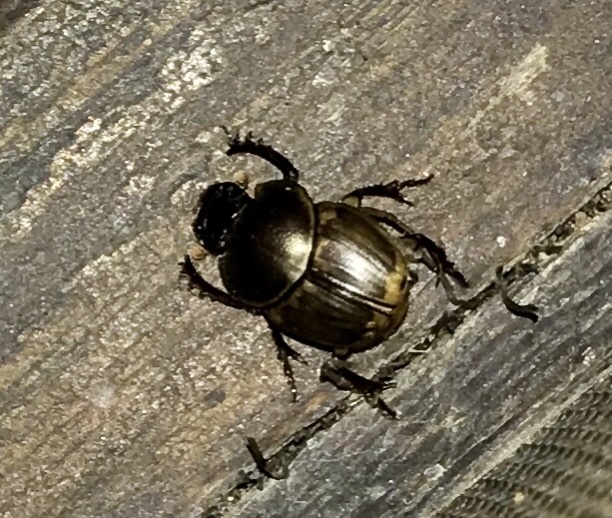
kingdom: Animalia
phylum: Arthropoda
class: Insecta
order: Coleoptera
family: Scarabaeidae
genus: Digitonthophagus
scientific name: Digitonthophagus gazella
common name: Brown dung beetle
